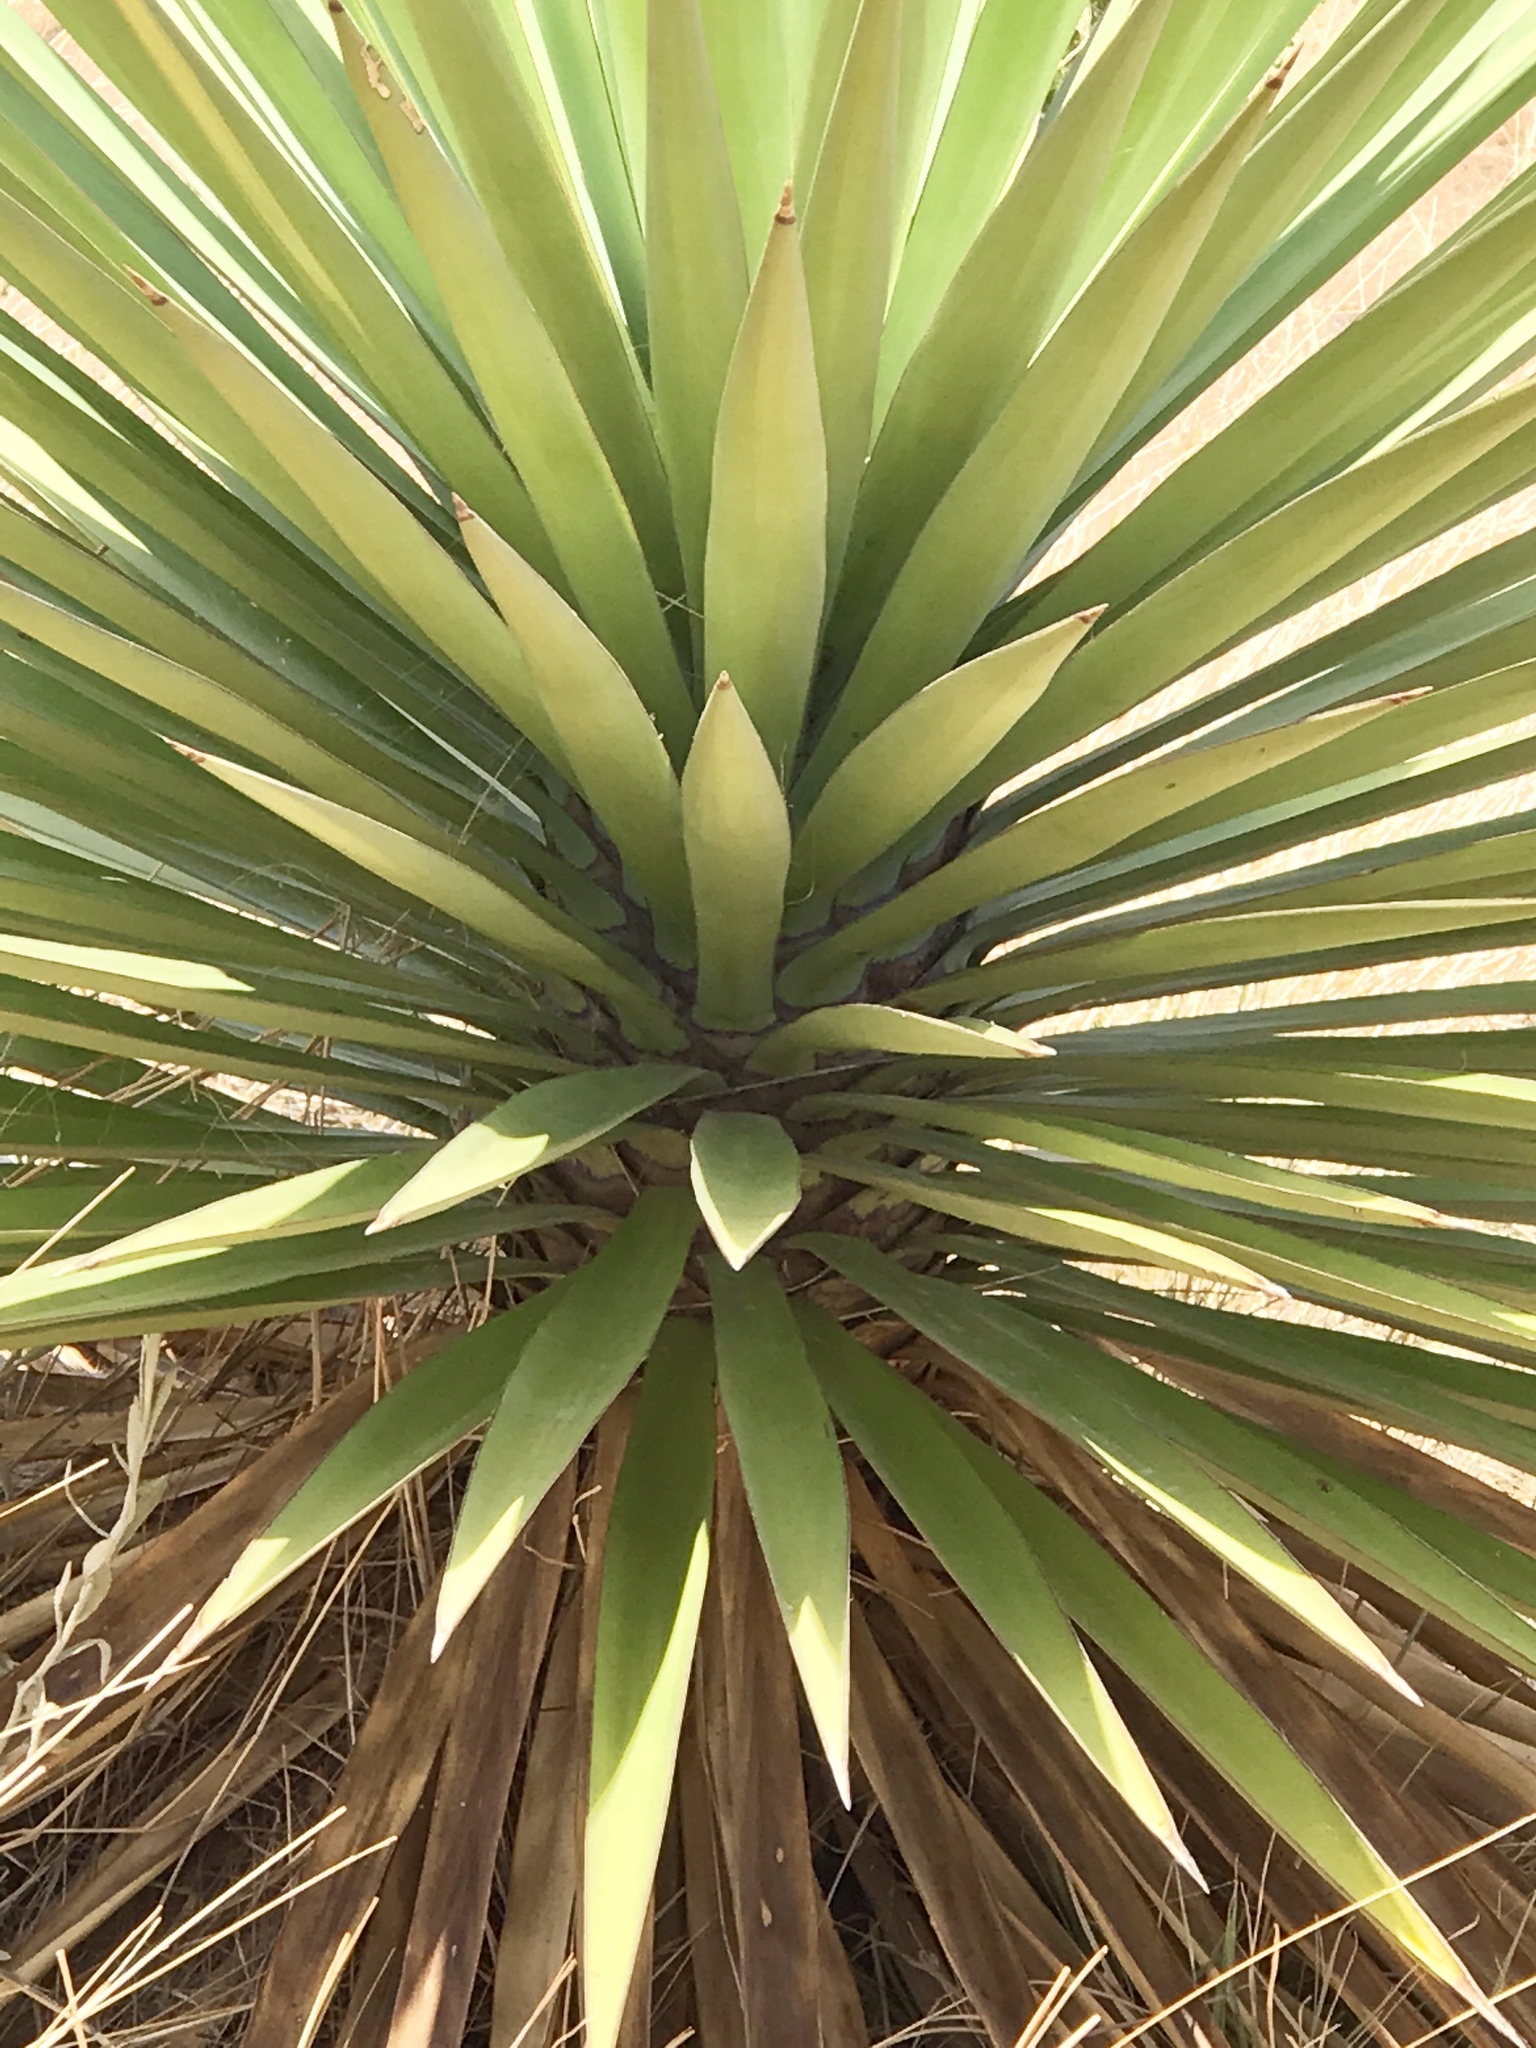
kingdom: Plantae
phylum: Tracheophyta
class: Liliopsida
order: Asparagales
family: Asparagaceae
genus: Yucca
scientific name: Yucca madrensis
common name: Hoary yucca
